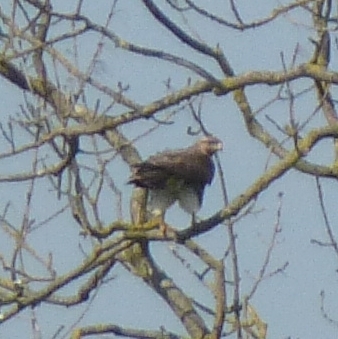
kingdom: Animalia
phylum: Chordata
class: Aves
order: Accipitriformes
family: Accipitridae
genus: Buteo
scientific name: Buteo buteo
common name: Common buzzard
